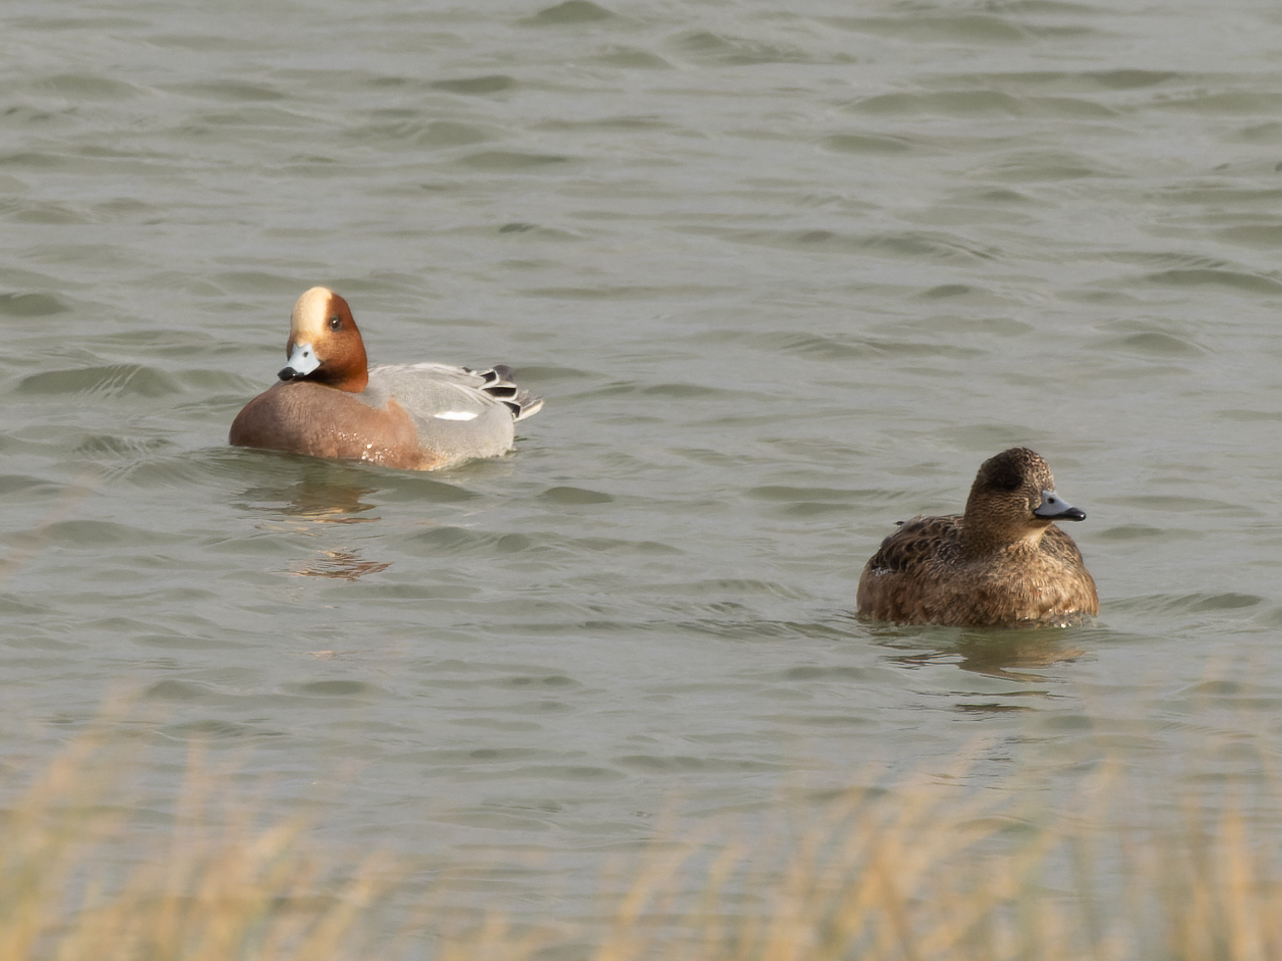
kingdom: Animalia
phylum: Chordata
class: Aves
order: Anseriformes
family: Anatidae
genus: Mareca
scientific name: Mareca penelope
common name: Eurasian wigeon
